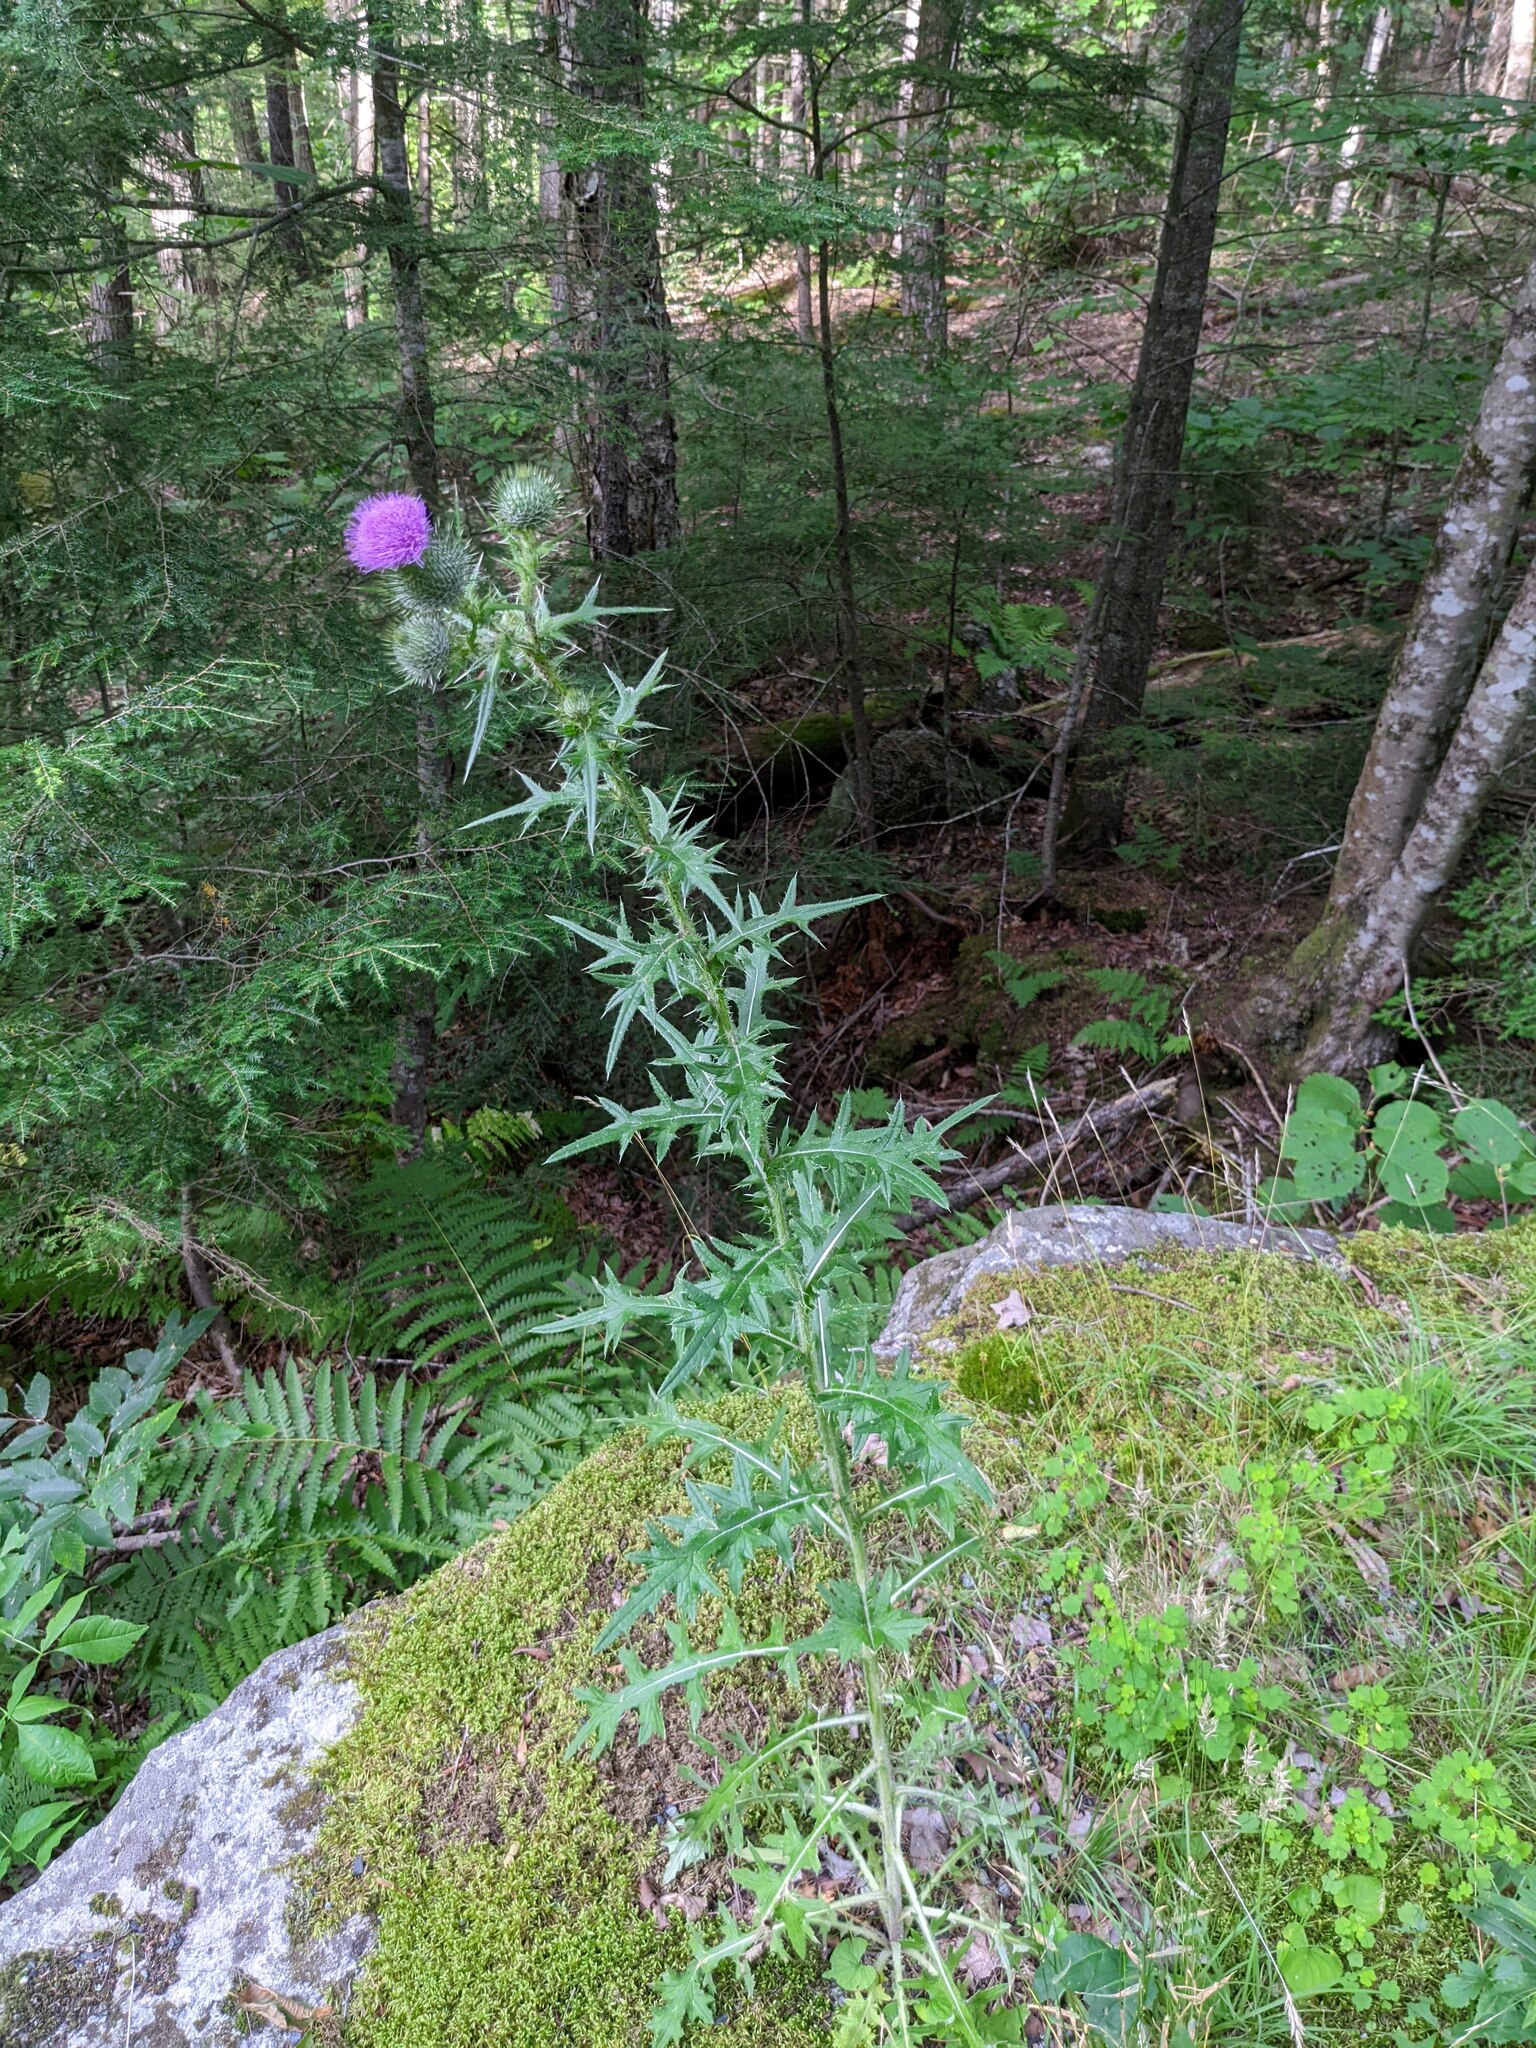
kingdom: Plantae
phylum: Tracheophyta
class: Magnoliopsida
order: Asterales
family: Asteraceae
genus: Cirsium
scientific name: Cirsium vulgare
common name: Bull thistle
